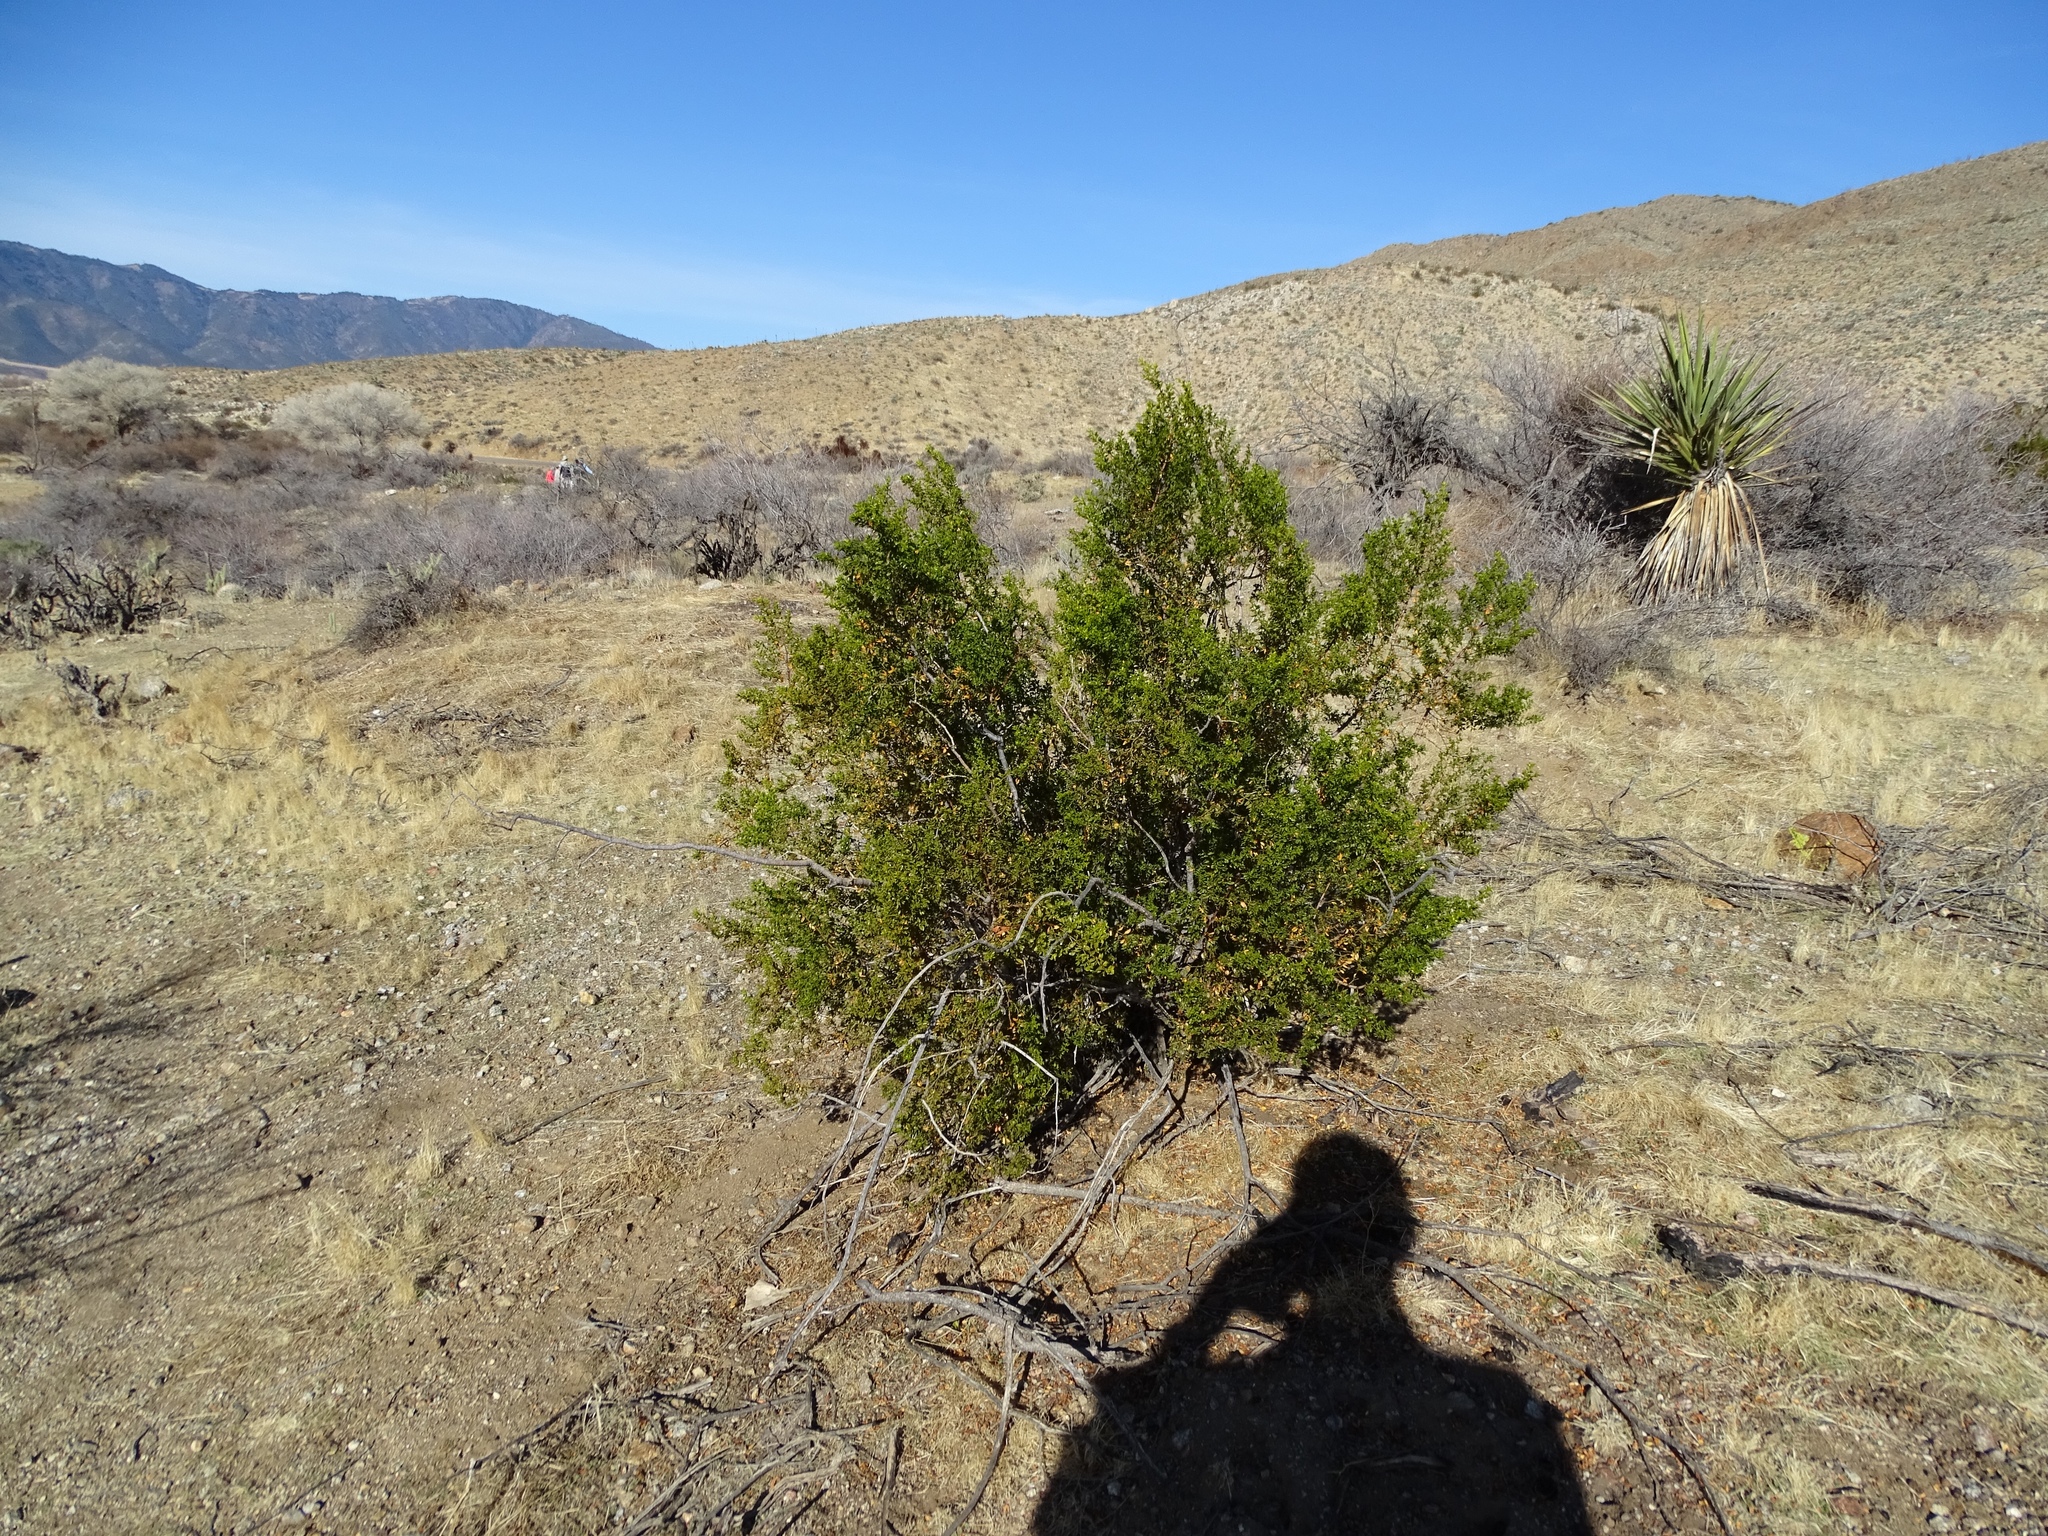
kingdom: Plantae
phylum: Tracheophyta
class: Magnoliopsida
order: Zygophyllales
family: Zygophyllaceae
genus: Larrea
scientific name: Larrea tridentata
